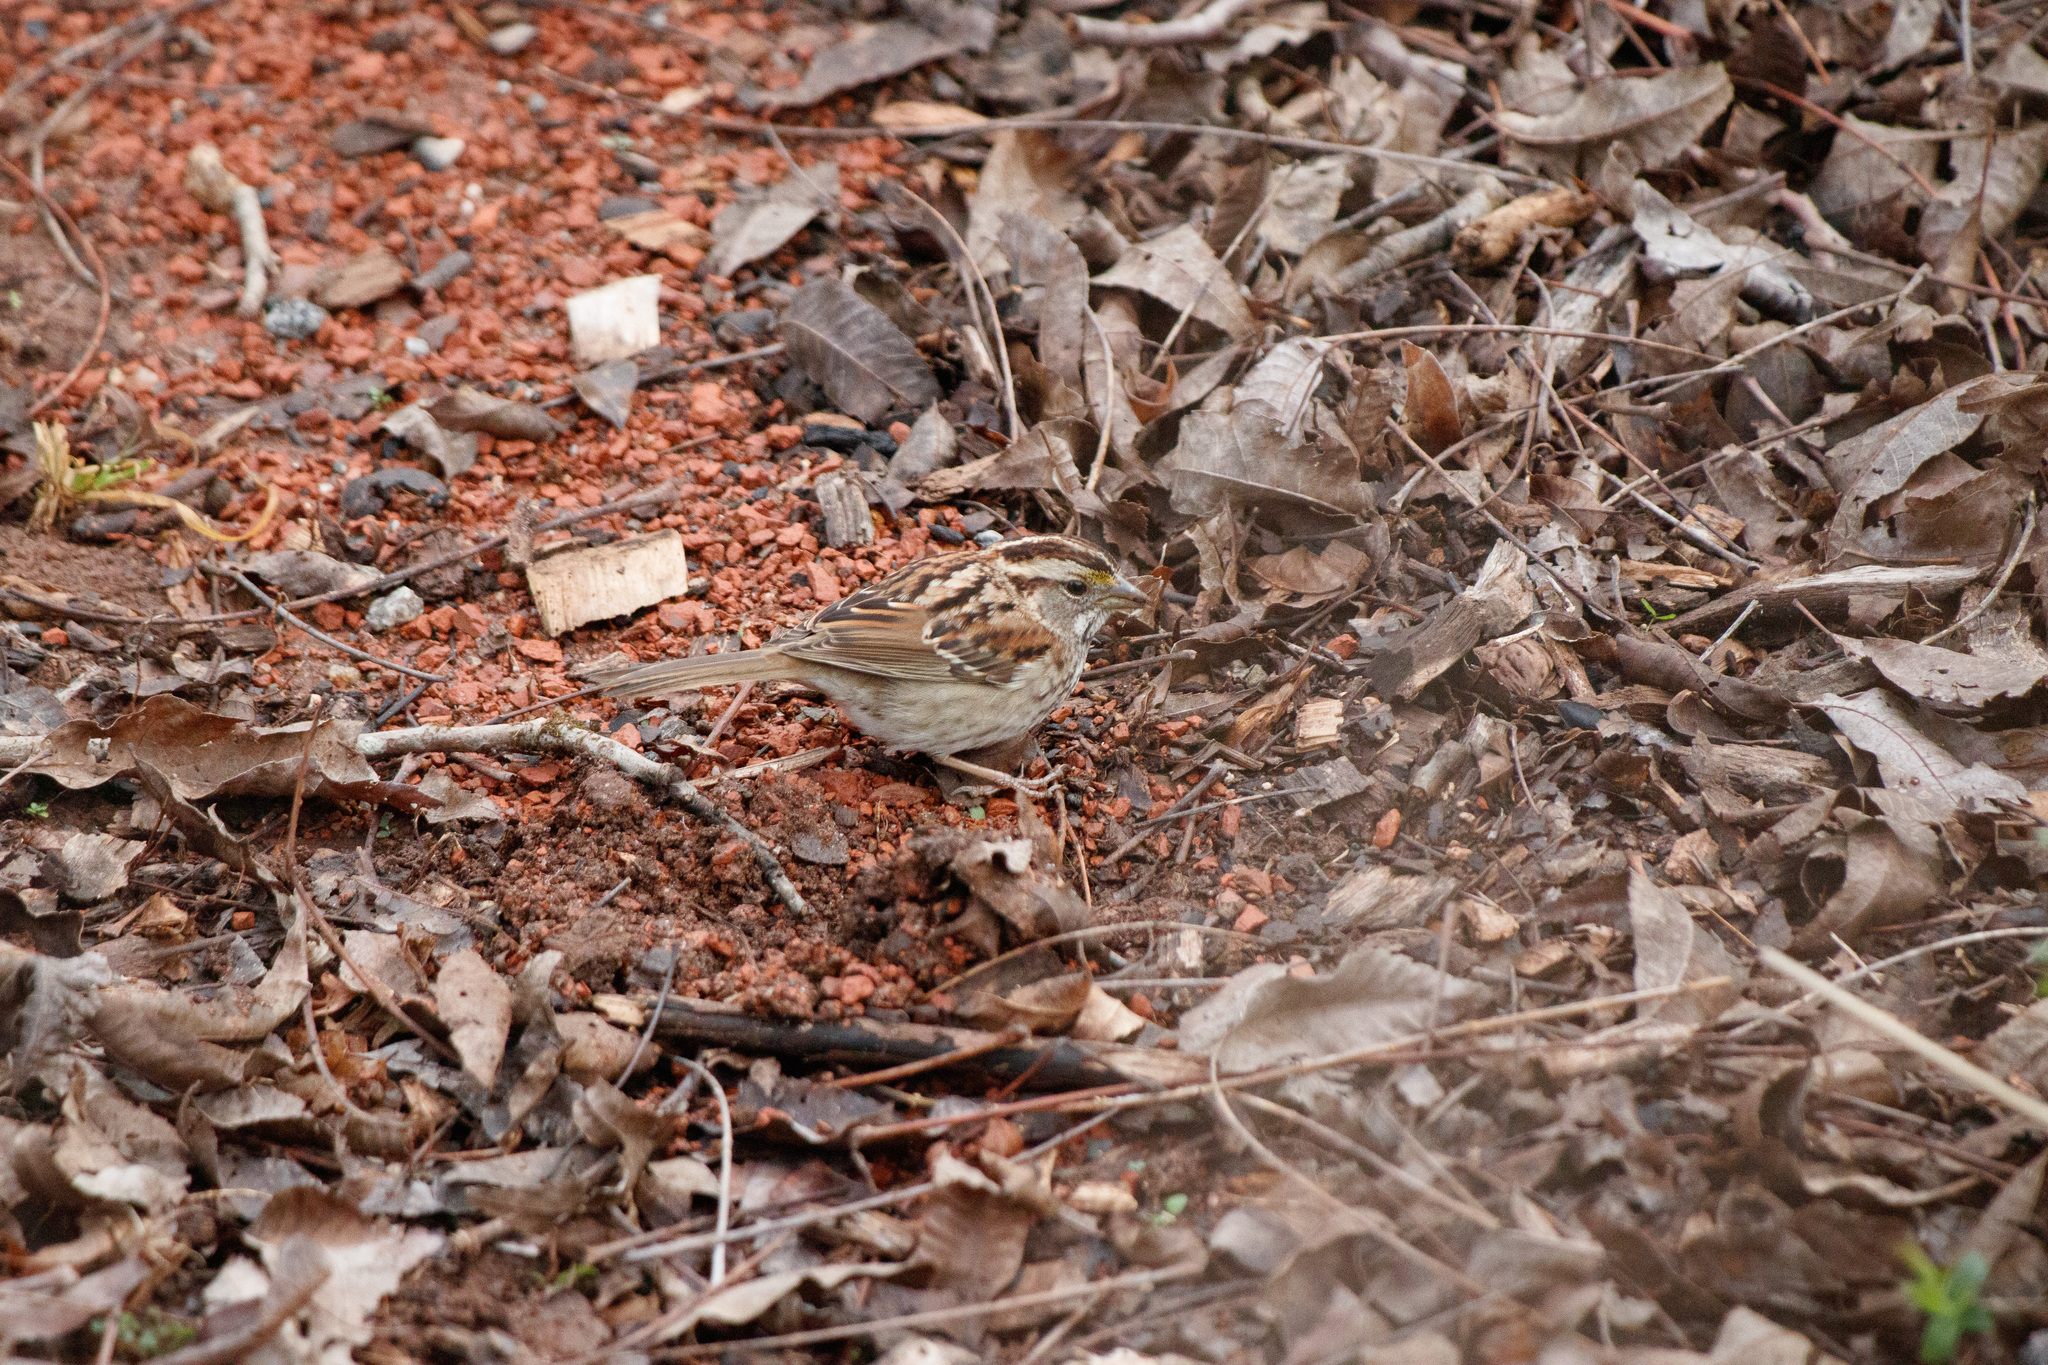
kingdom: Animalia
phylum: Chordata
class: Aves
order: Passeriformes
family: Passerellidae
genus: Zonotrichia
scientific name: Zonotrichia albicollis
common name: White-throated sparrow
